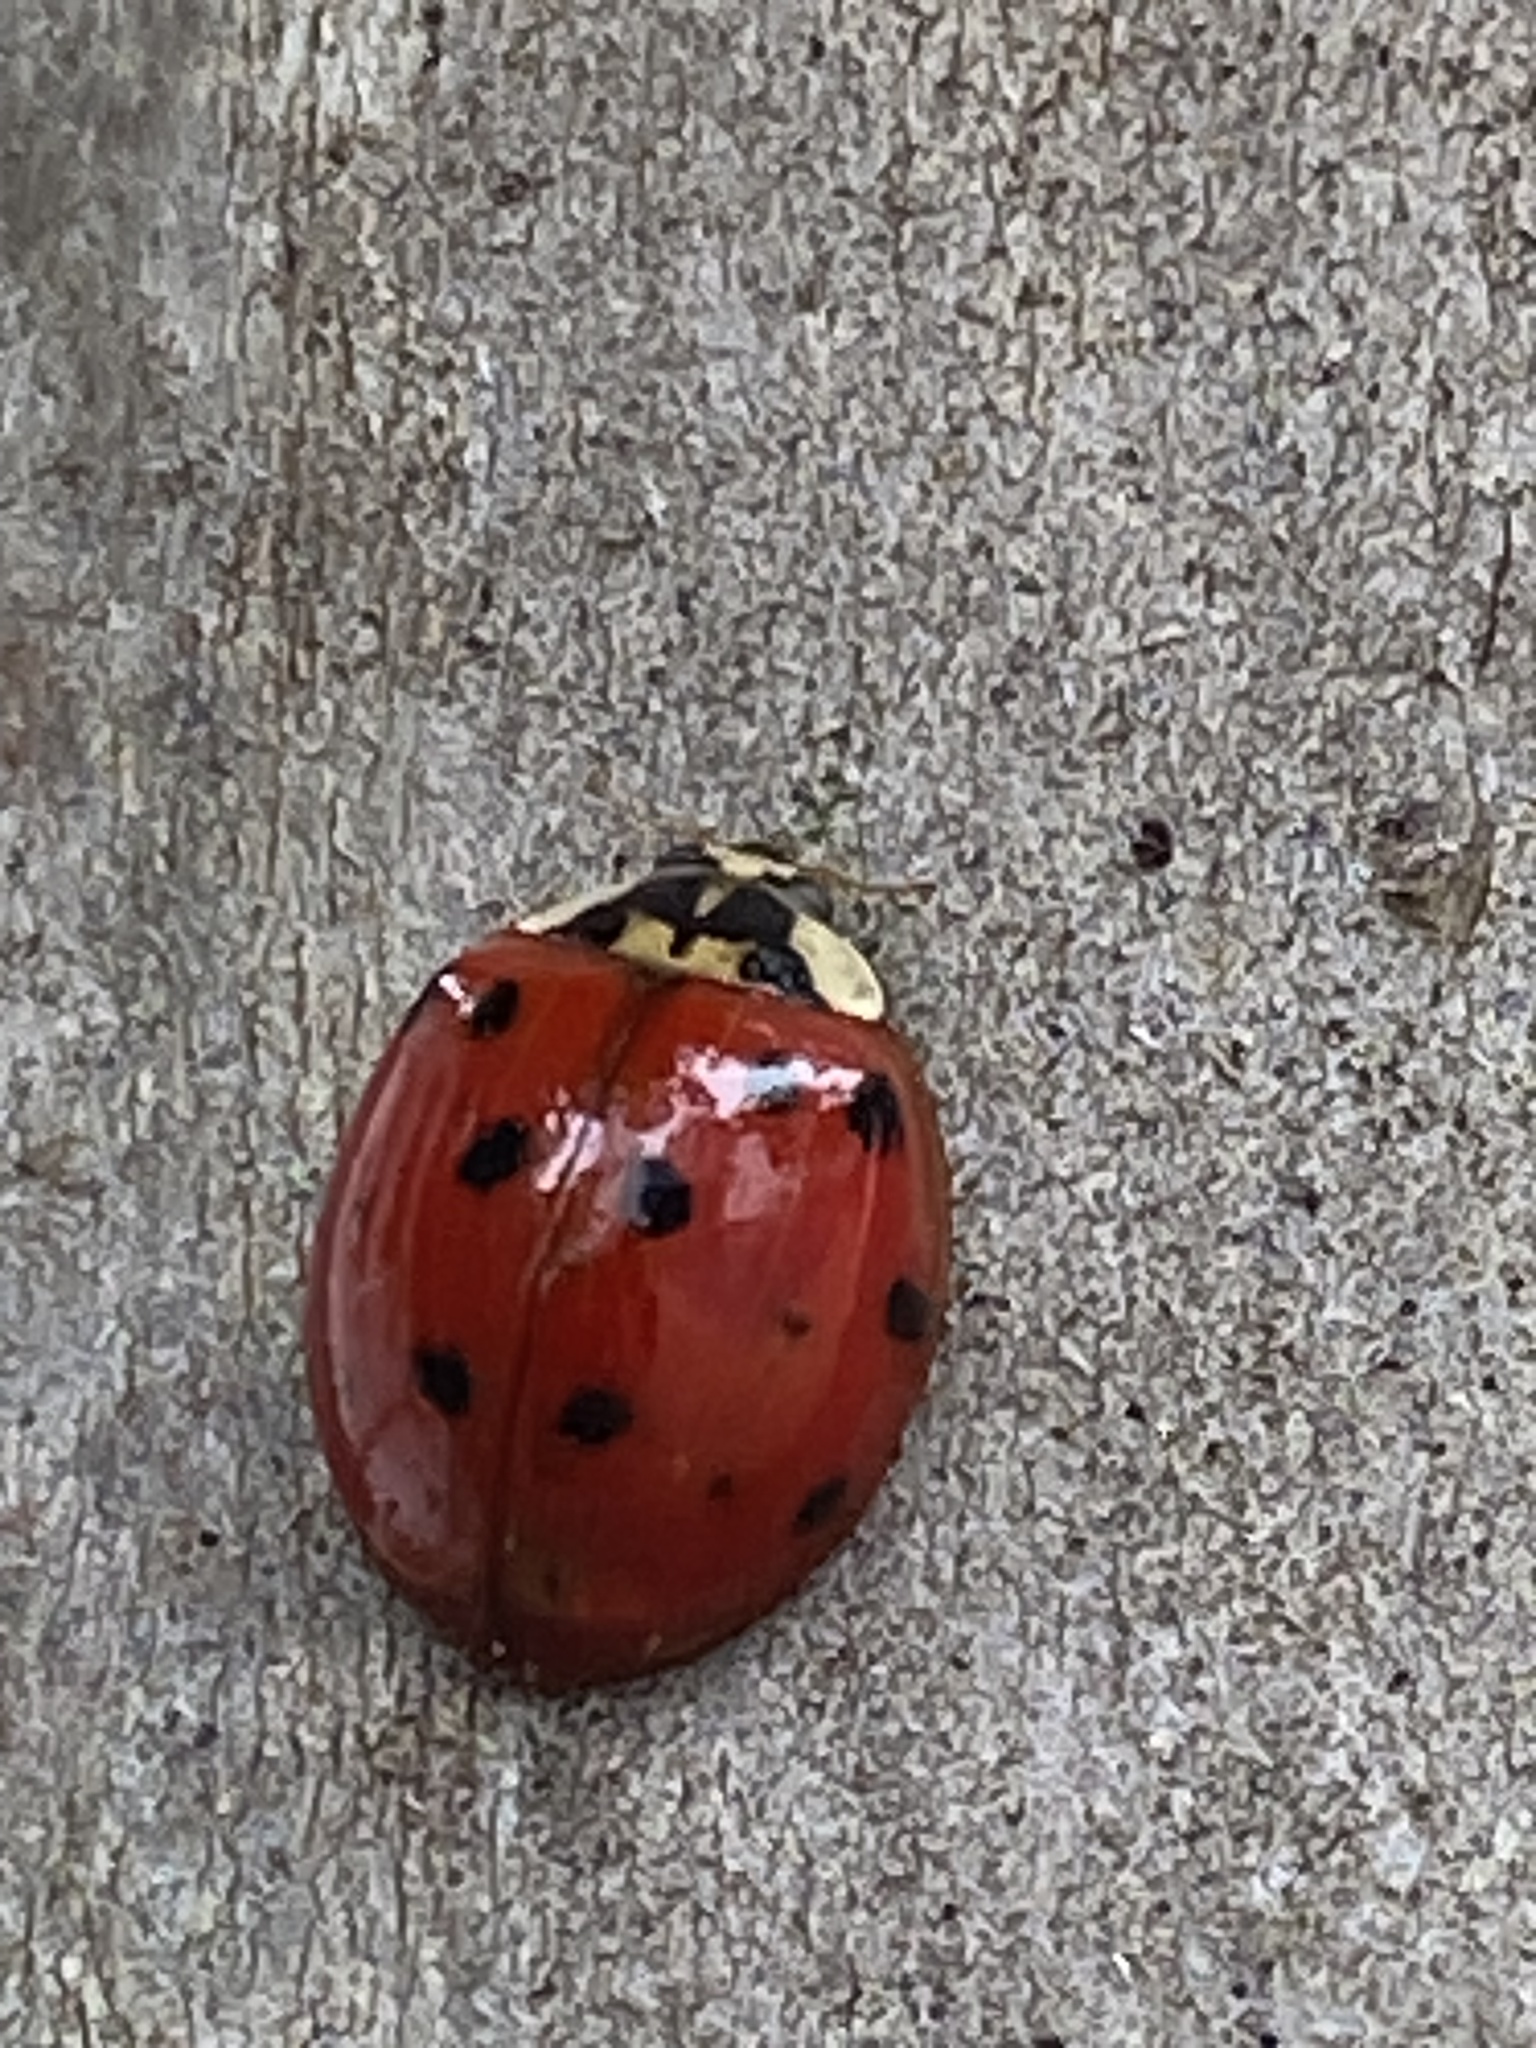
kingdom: Animalia
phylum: Arthropoda
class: Insecta
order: Coleoptera
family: Coccinellidae
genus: Harmonia
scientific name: Harmonia axyridis
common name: Harlequin ladybird
